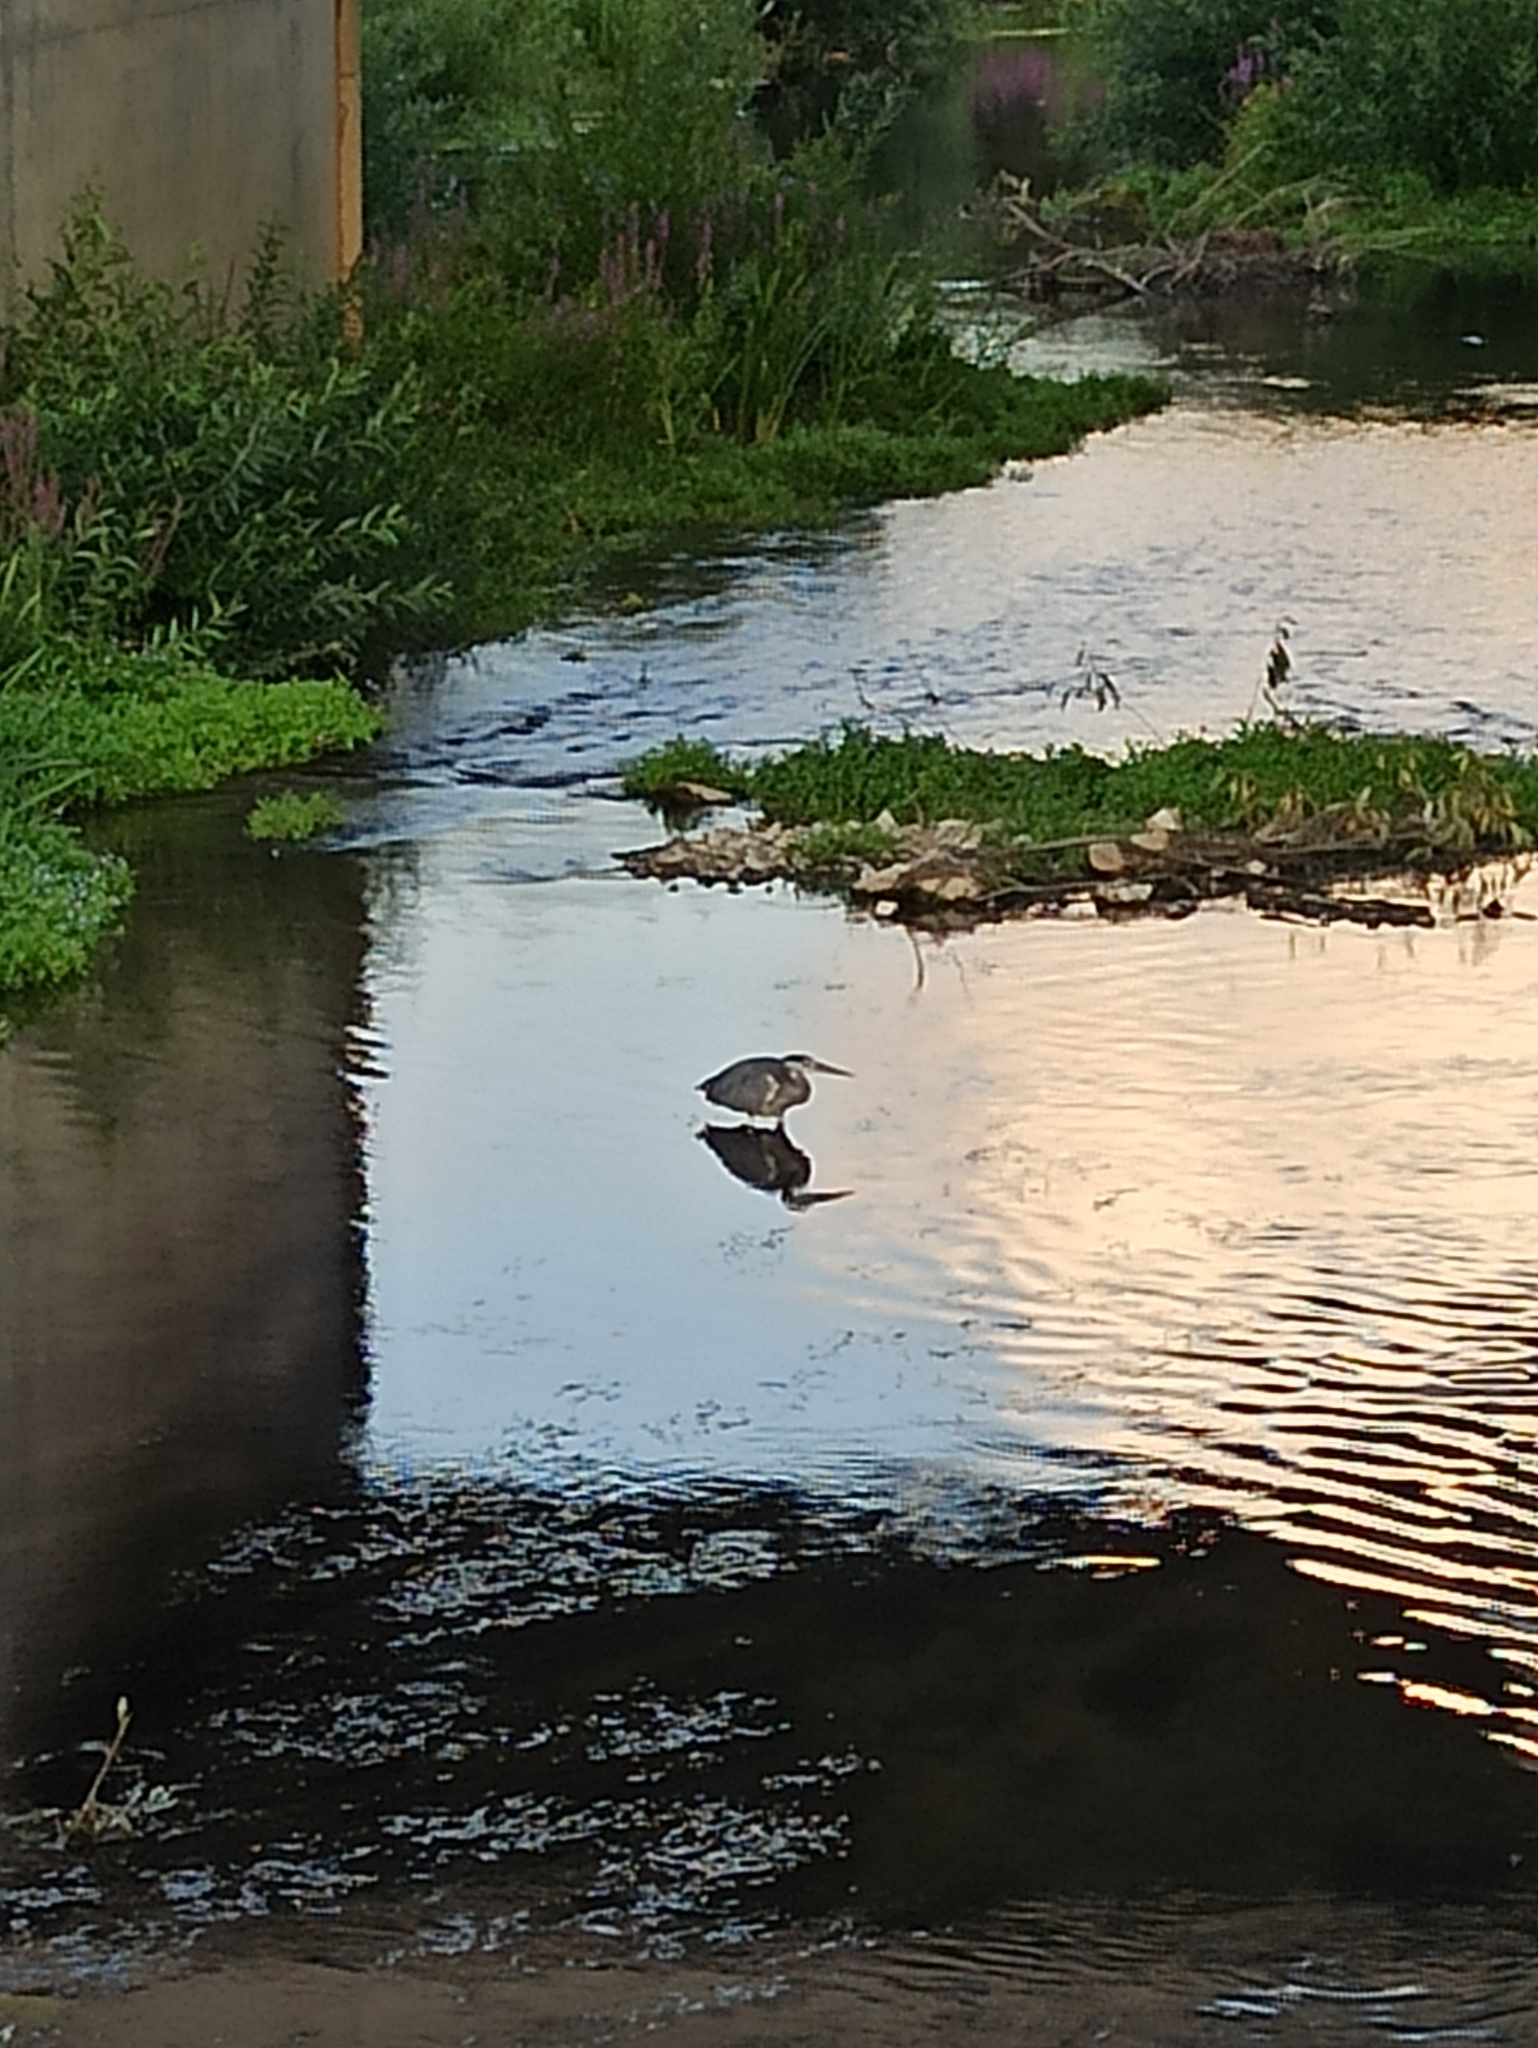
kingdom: Animalia
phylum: Chordata
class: Aves
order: Pelecaniformes
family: Ardeidae
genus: Ardea
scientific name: Ardea cinerea
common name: Grey heron
